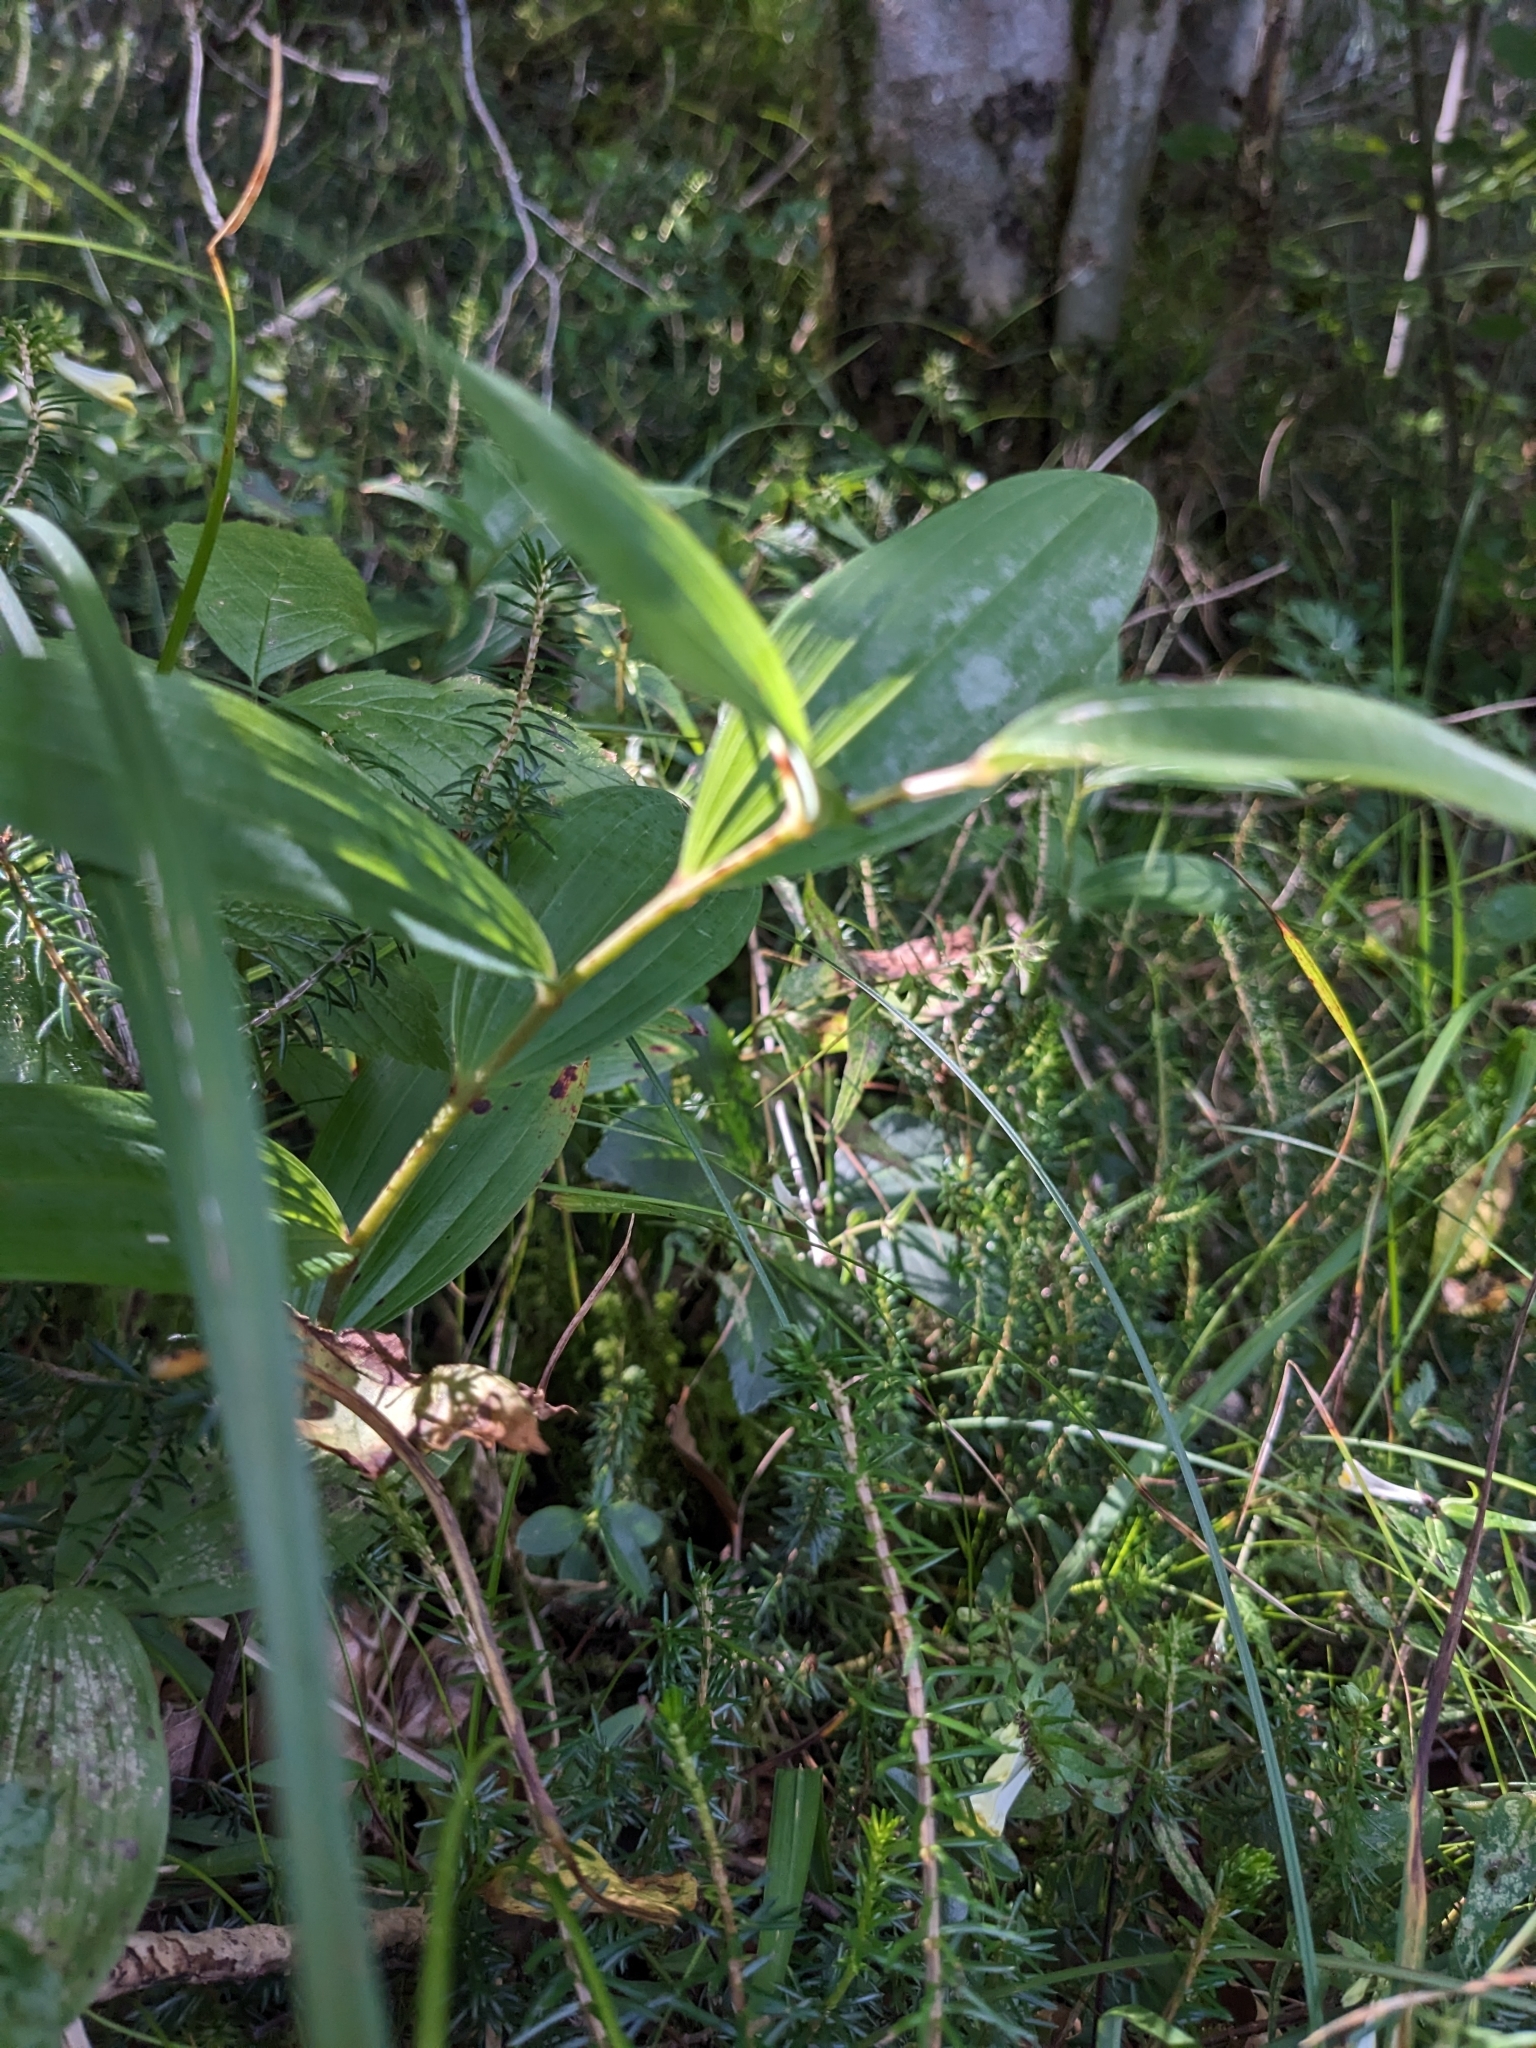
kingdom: Plantae
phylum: Tracheophyta
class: Liliopsida
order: Asparagales
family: Asparagaceae
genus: Polygonatum
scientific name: Polygonatum odoratum
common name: Angular solomon's-seal
